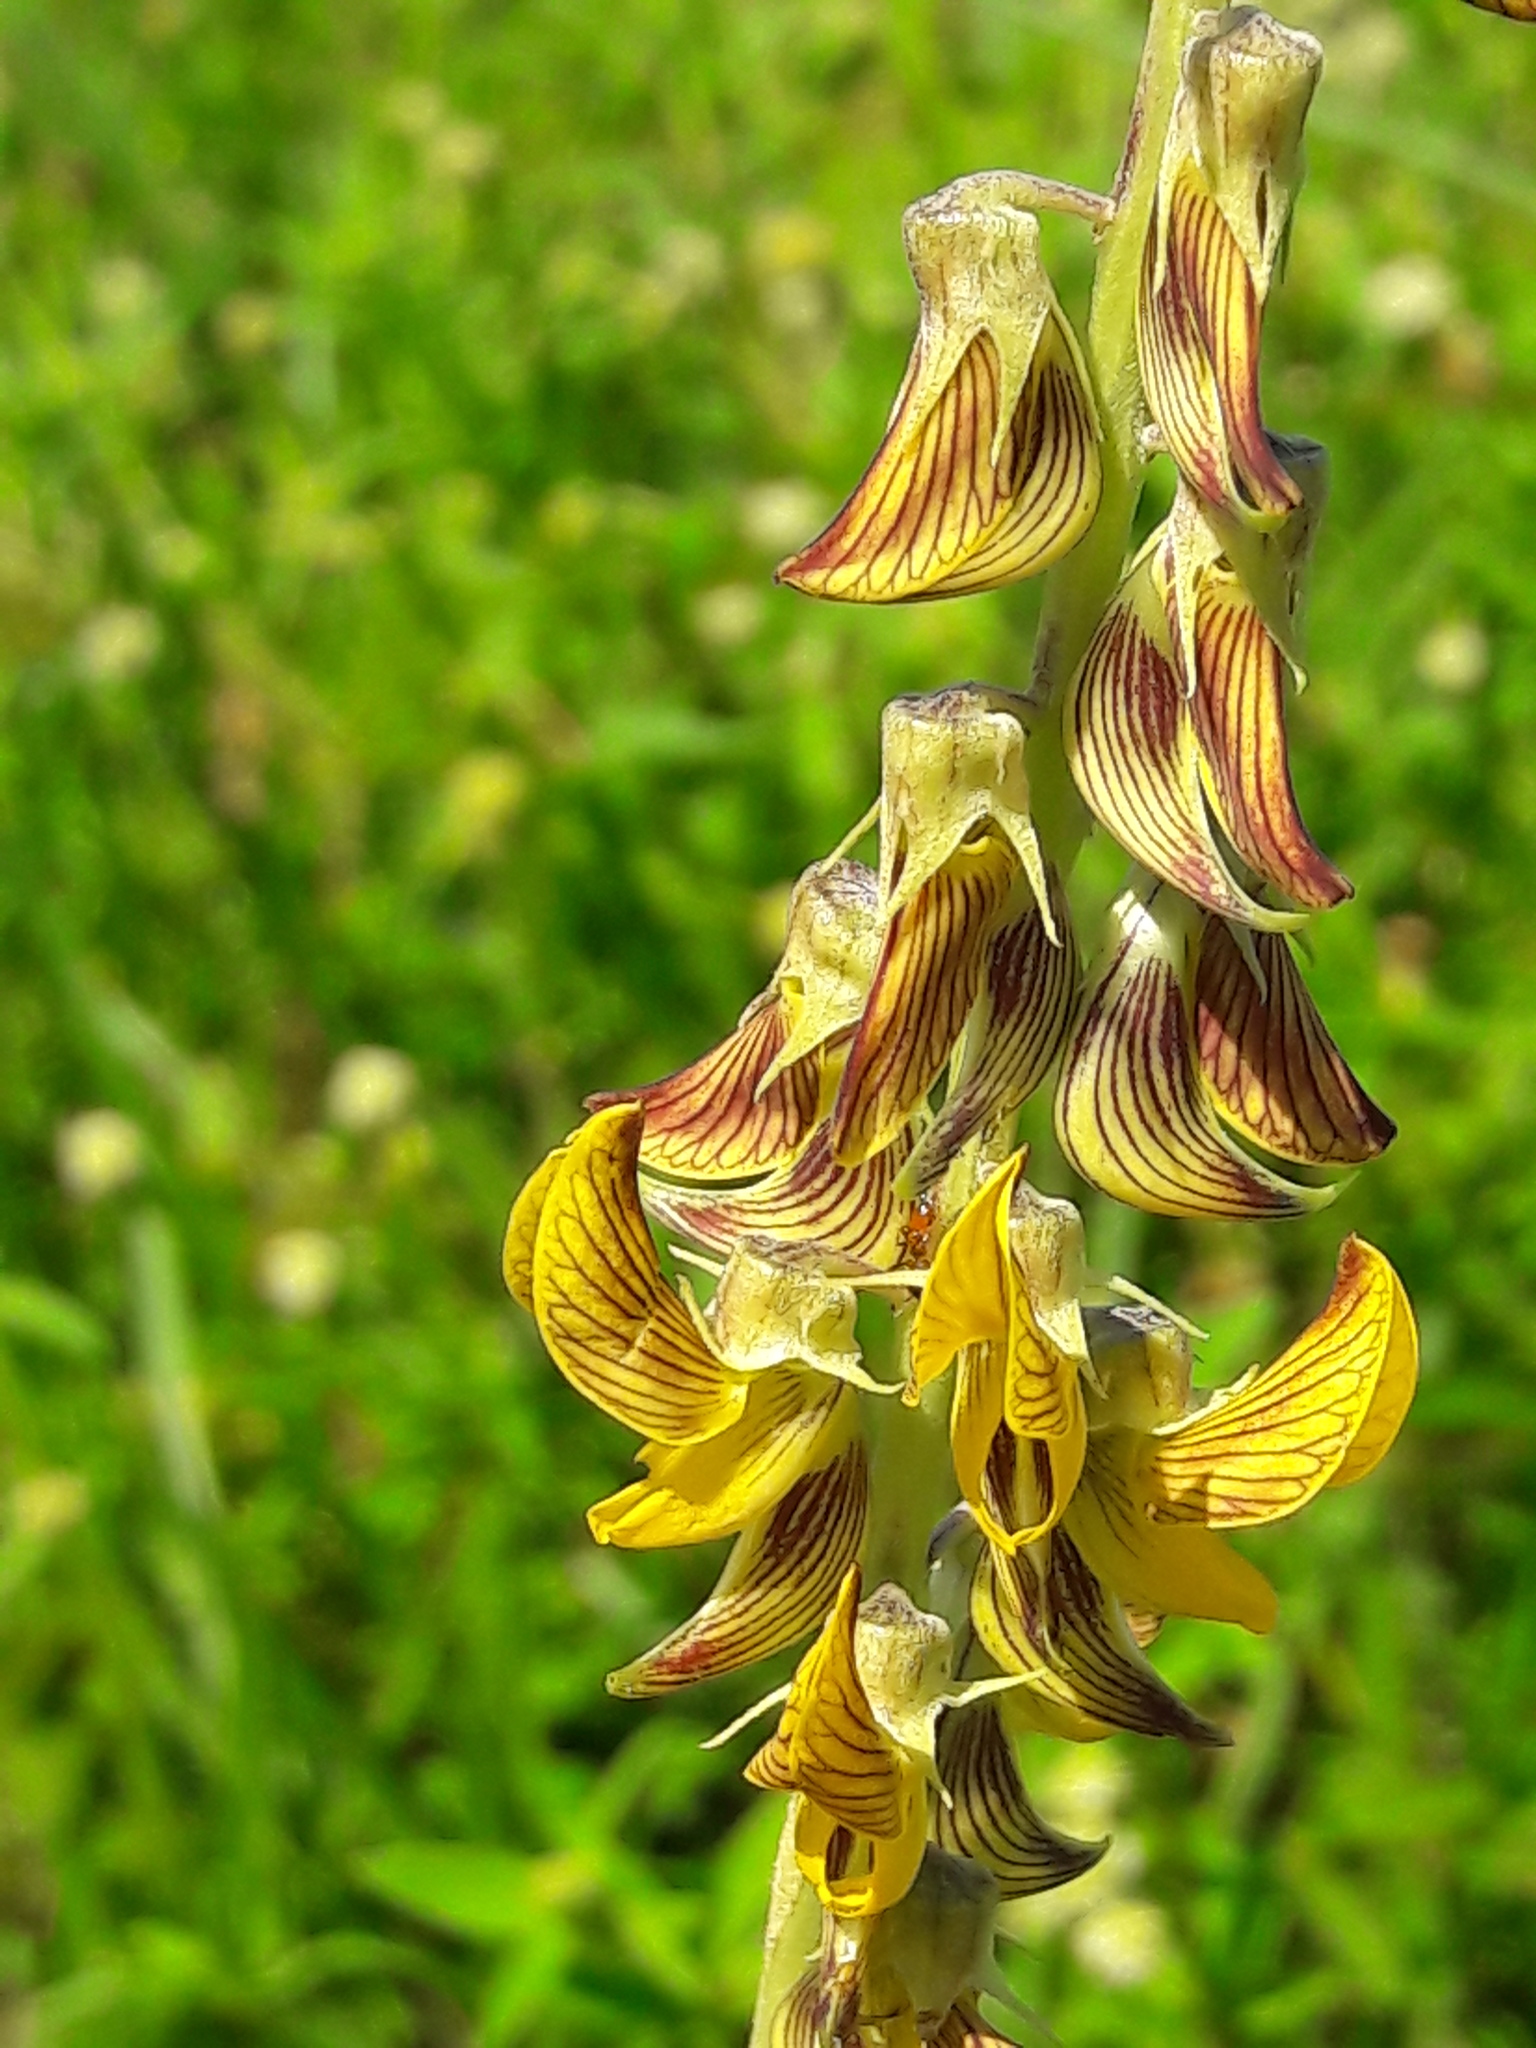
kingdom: Plantae
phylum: Tracheophyta
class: Magnoliopsida
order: Fabales
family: Fabaceae
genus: Crotalaria
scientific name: Crotalaria pallida
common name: Smooth rattlebox
